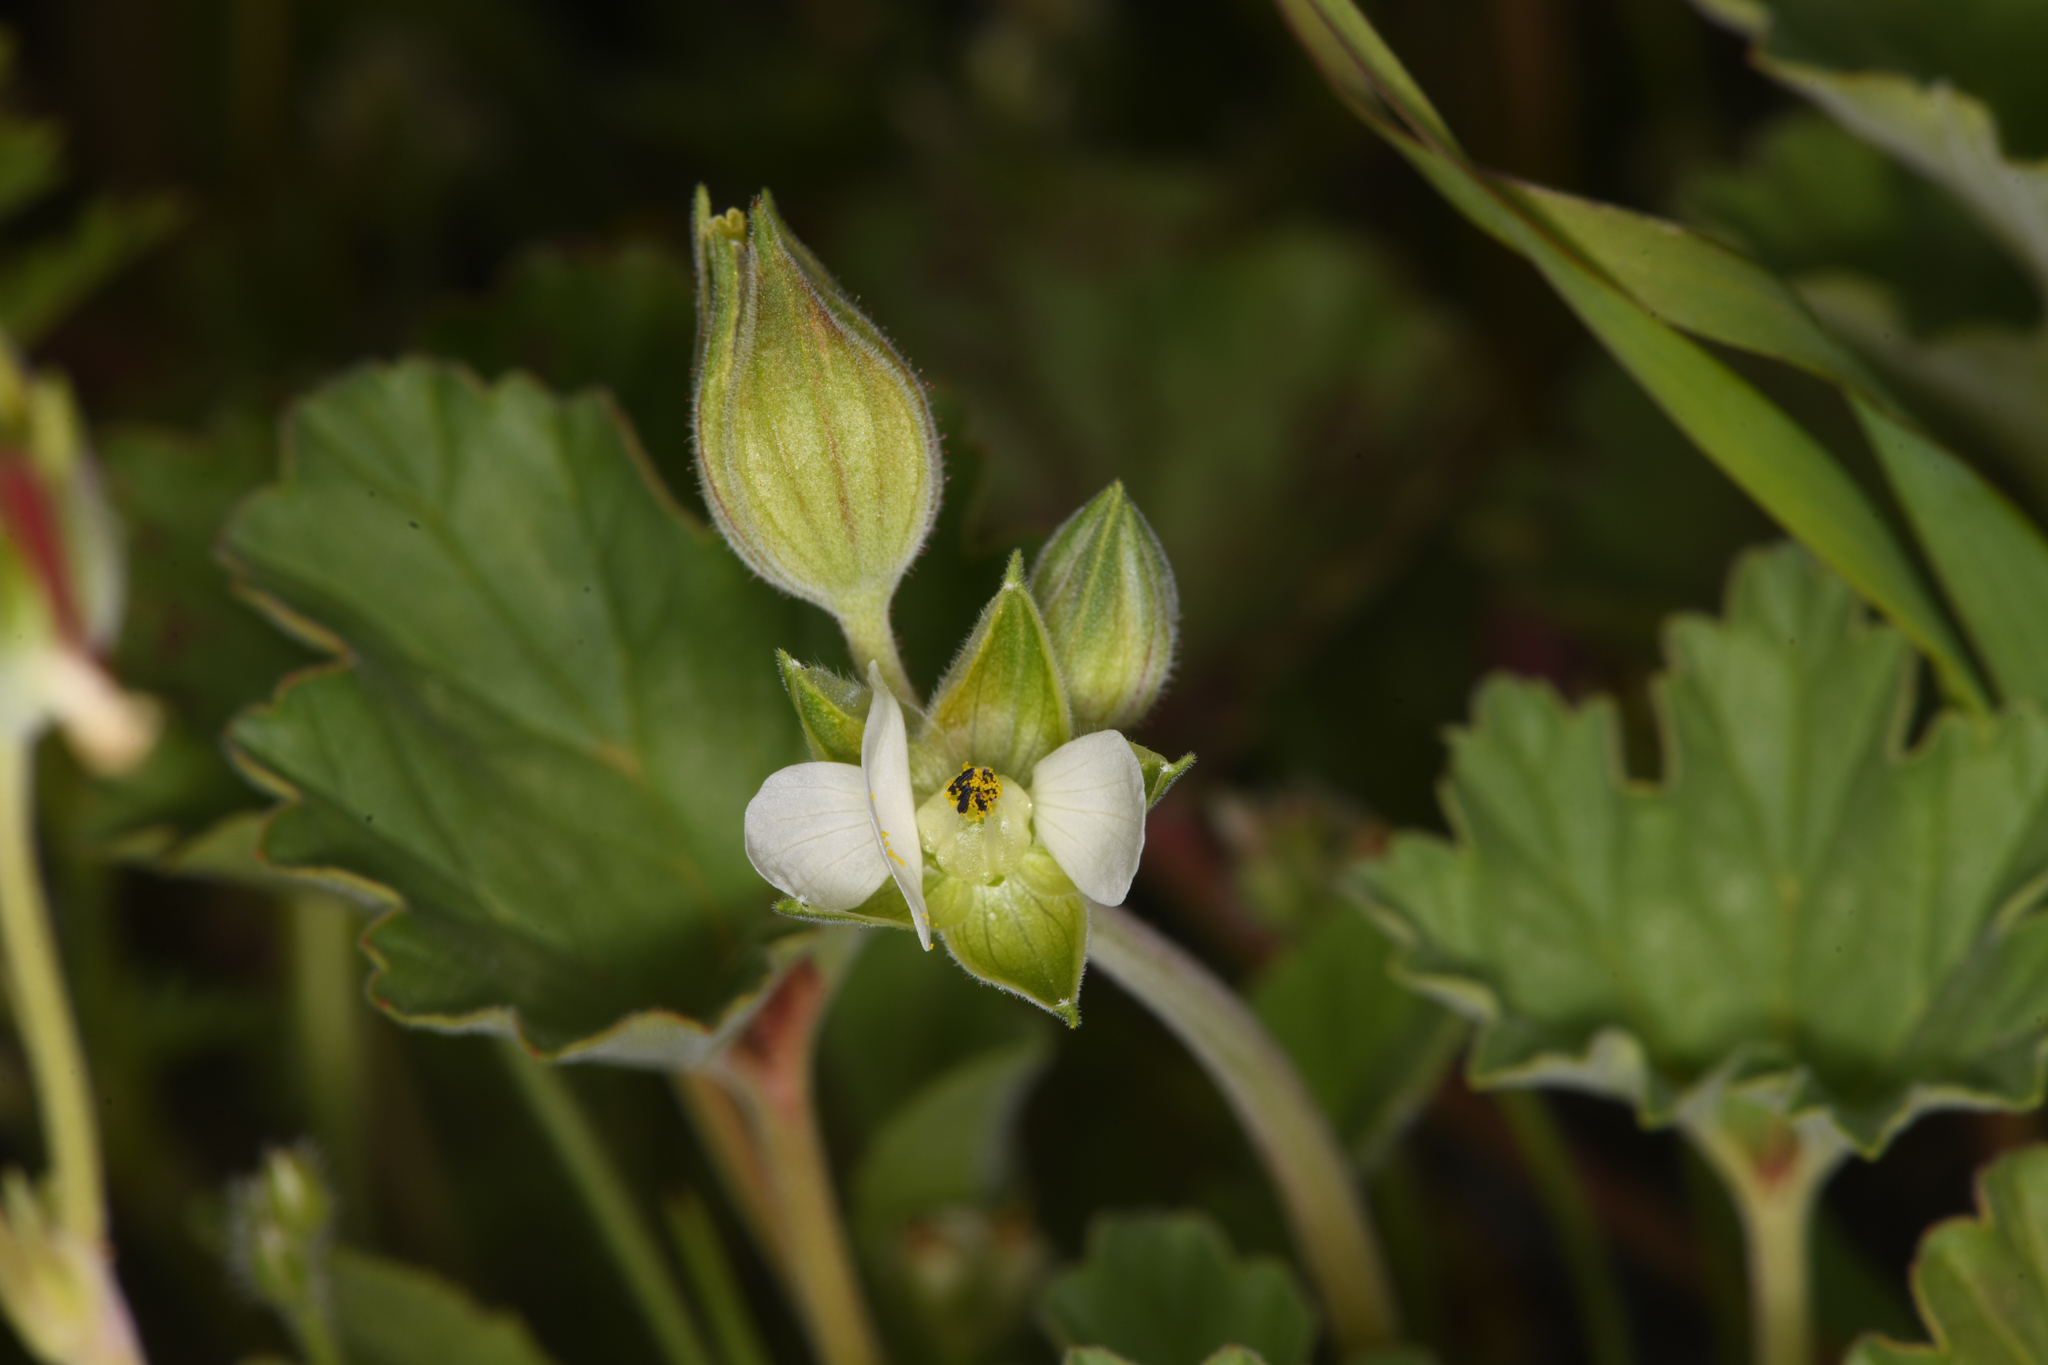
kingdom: Plantae
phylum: Tracheophyta
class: Magnoliopsida
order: Geraniales
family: Geraniaceae
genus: California
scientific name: California macrophylla
